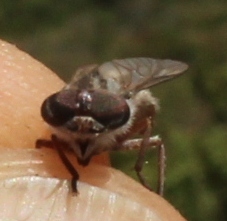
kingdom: Animalia
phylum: Arthropoda
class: Insecta
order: Diptera
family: Tabanidae
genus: Tabanus
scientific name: Tabanus taeniatus
